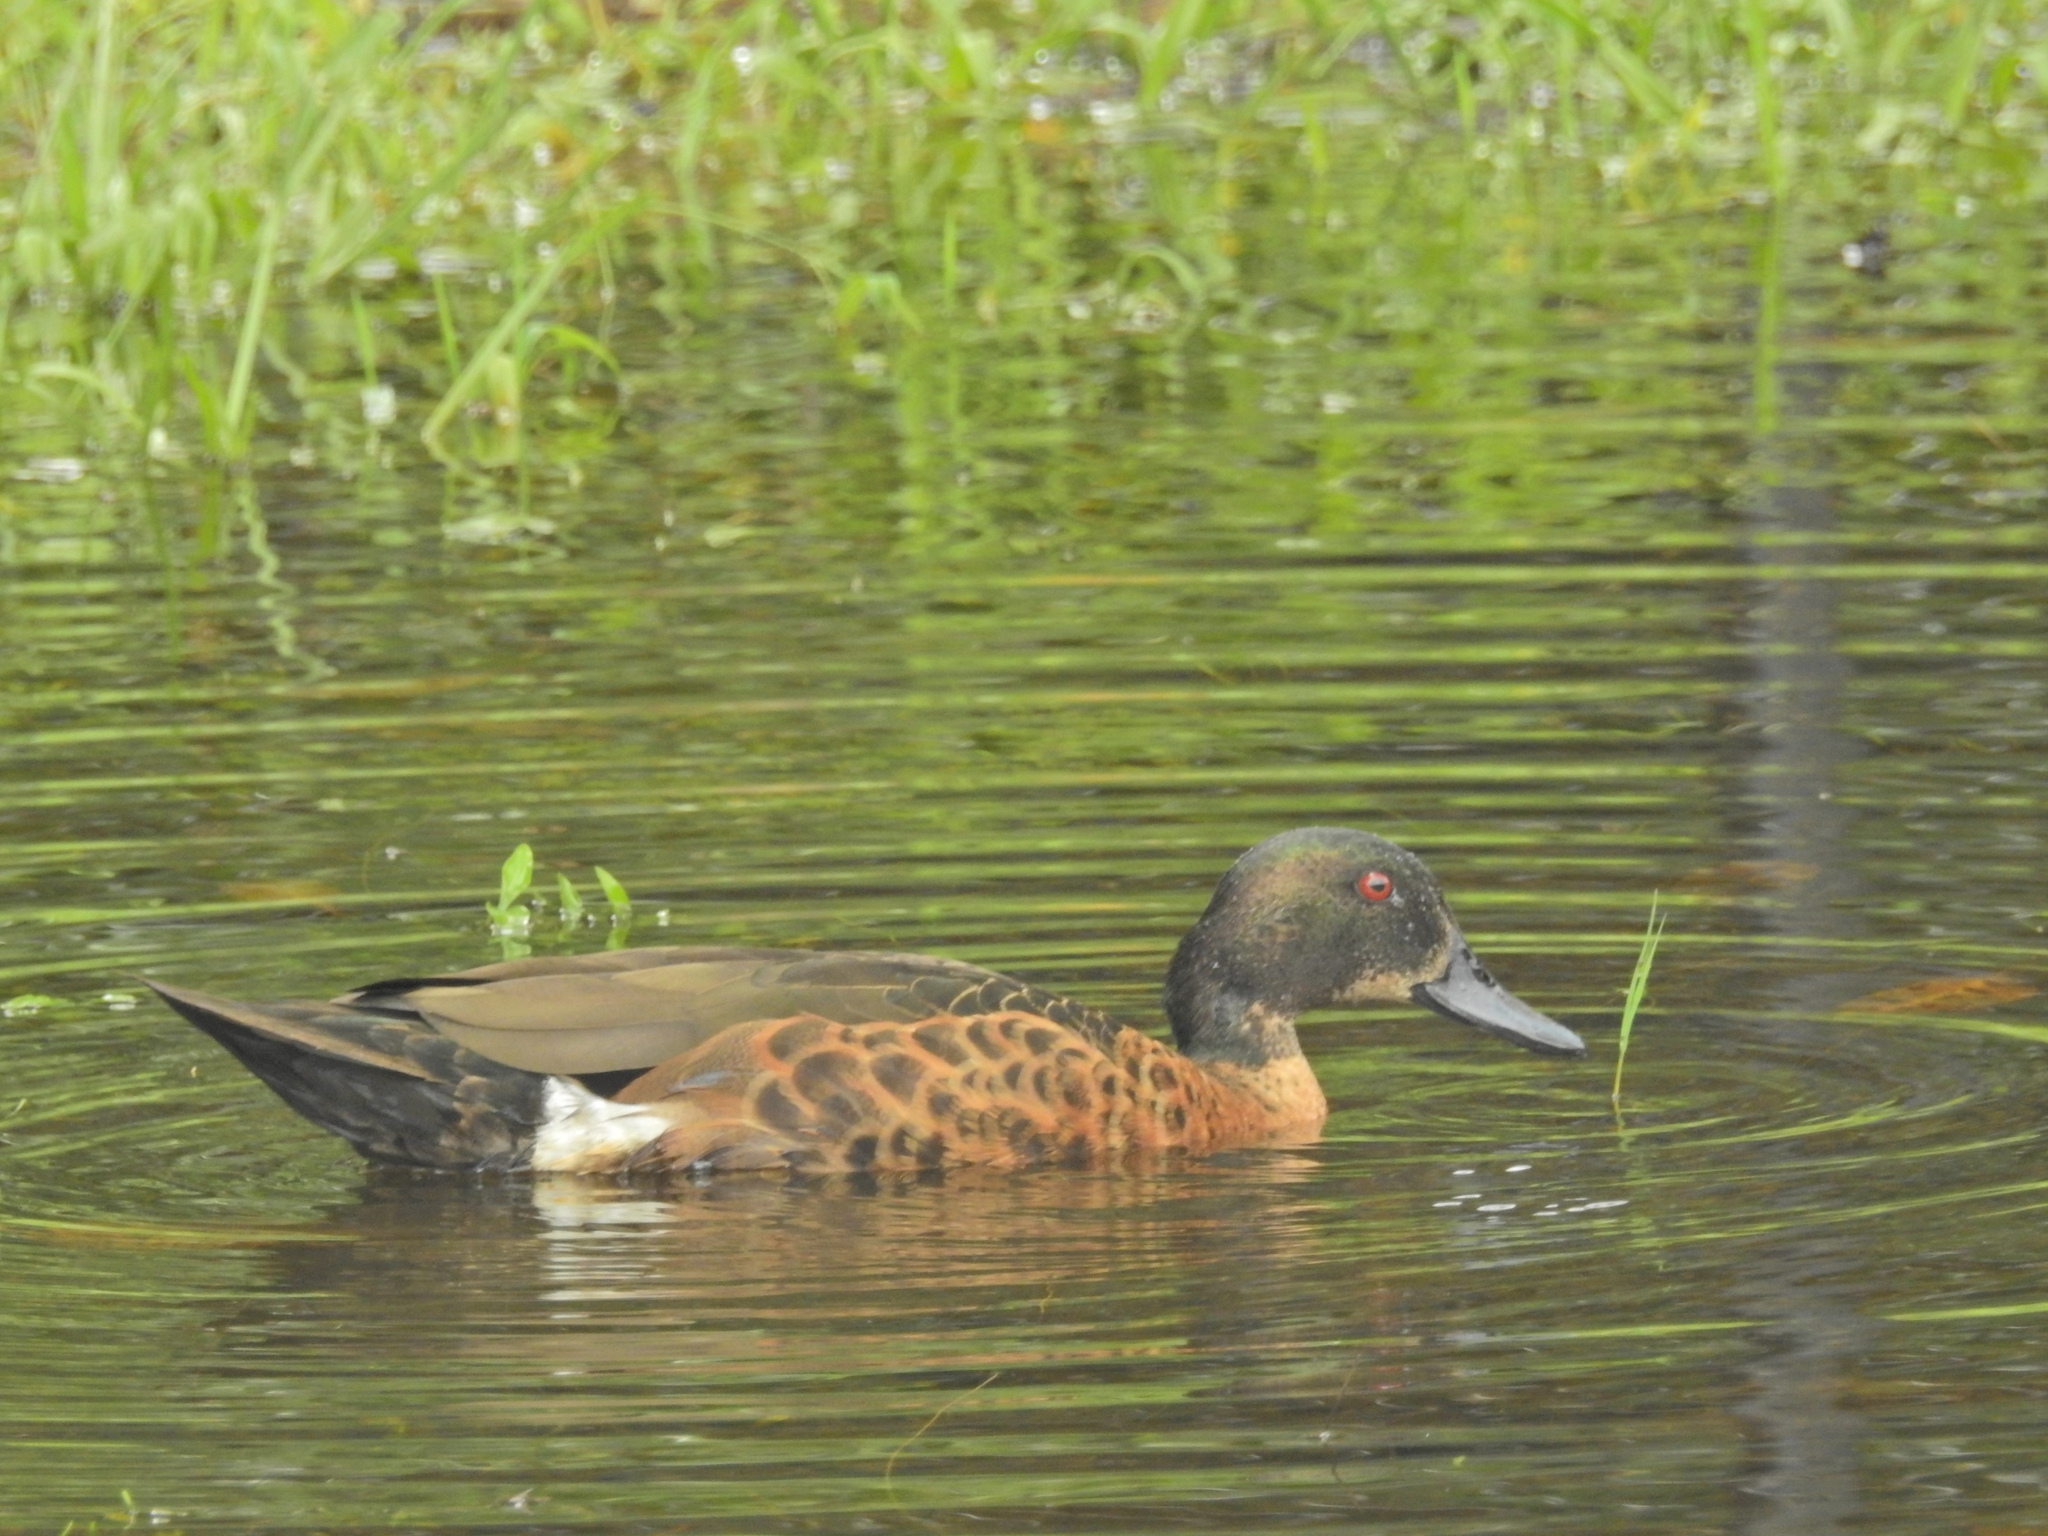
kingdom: Animalia
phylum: Chordata
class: Aves
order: Anseriformes
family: Anatidae
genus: Anas
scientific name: Anas castanea
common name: Chestnut teal
